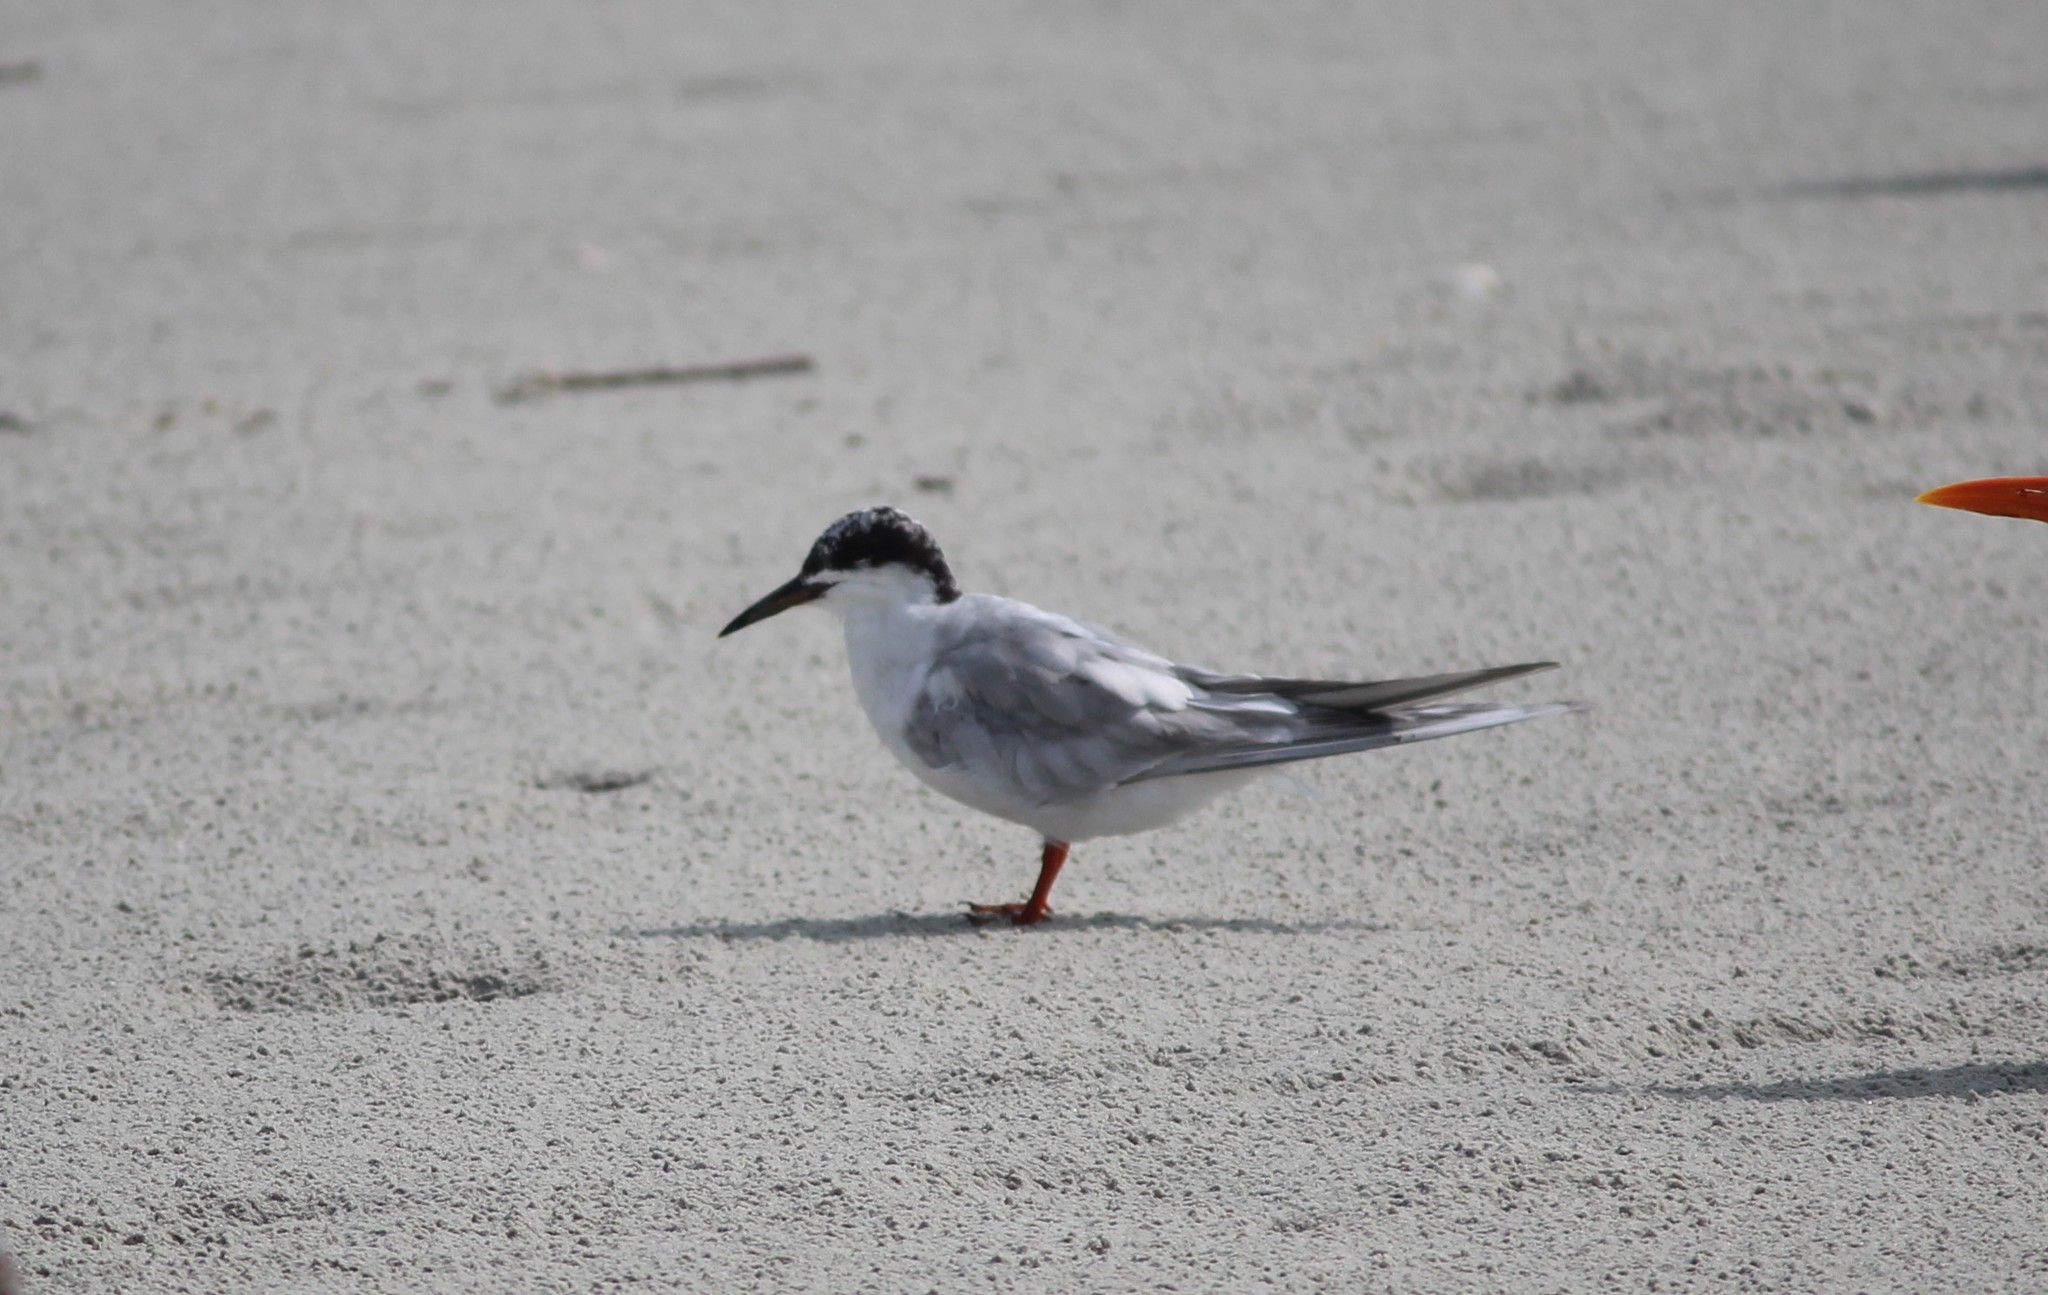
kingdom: Animalia
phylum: Chordata
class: Aves
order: Charadriiformes
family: Laridae
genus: Sterna
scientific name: Sterna hirundo
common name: Common tern
